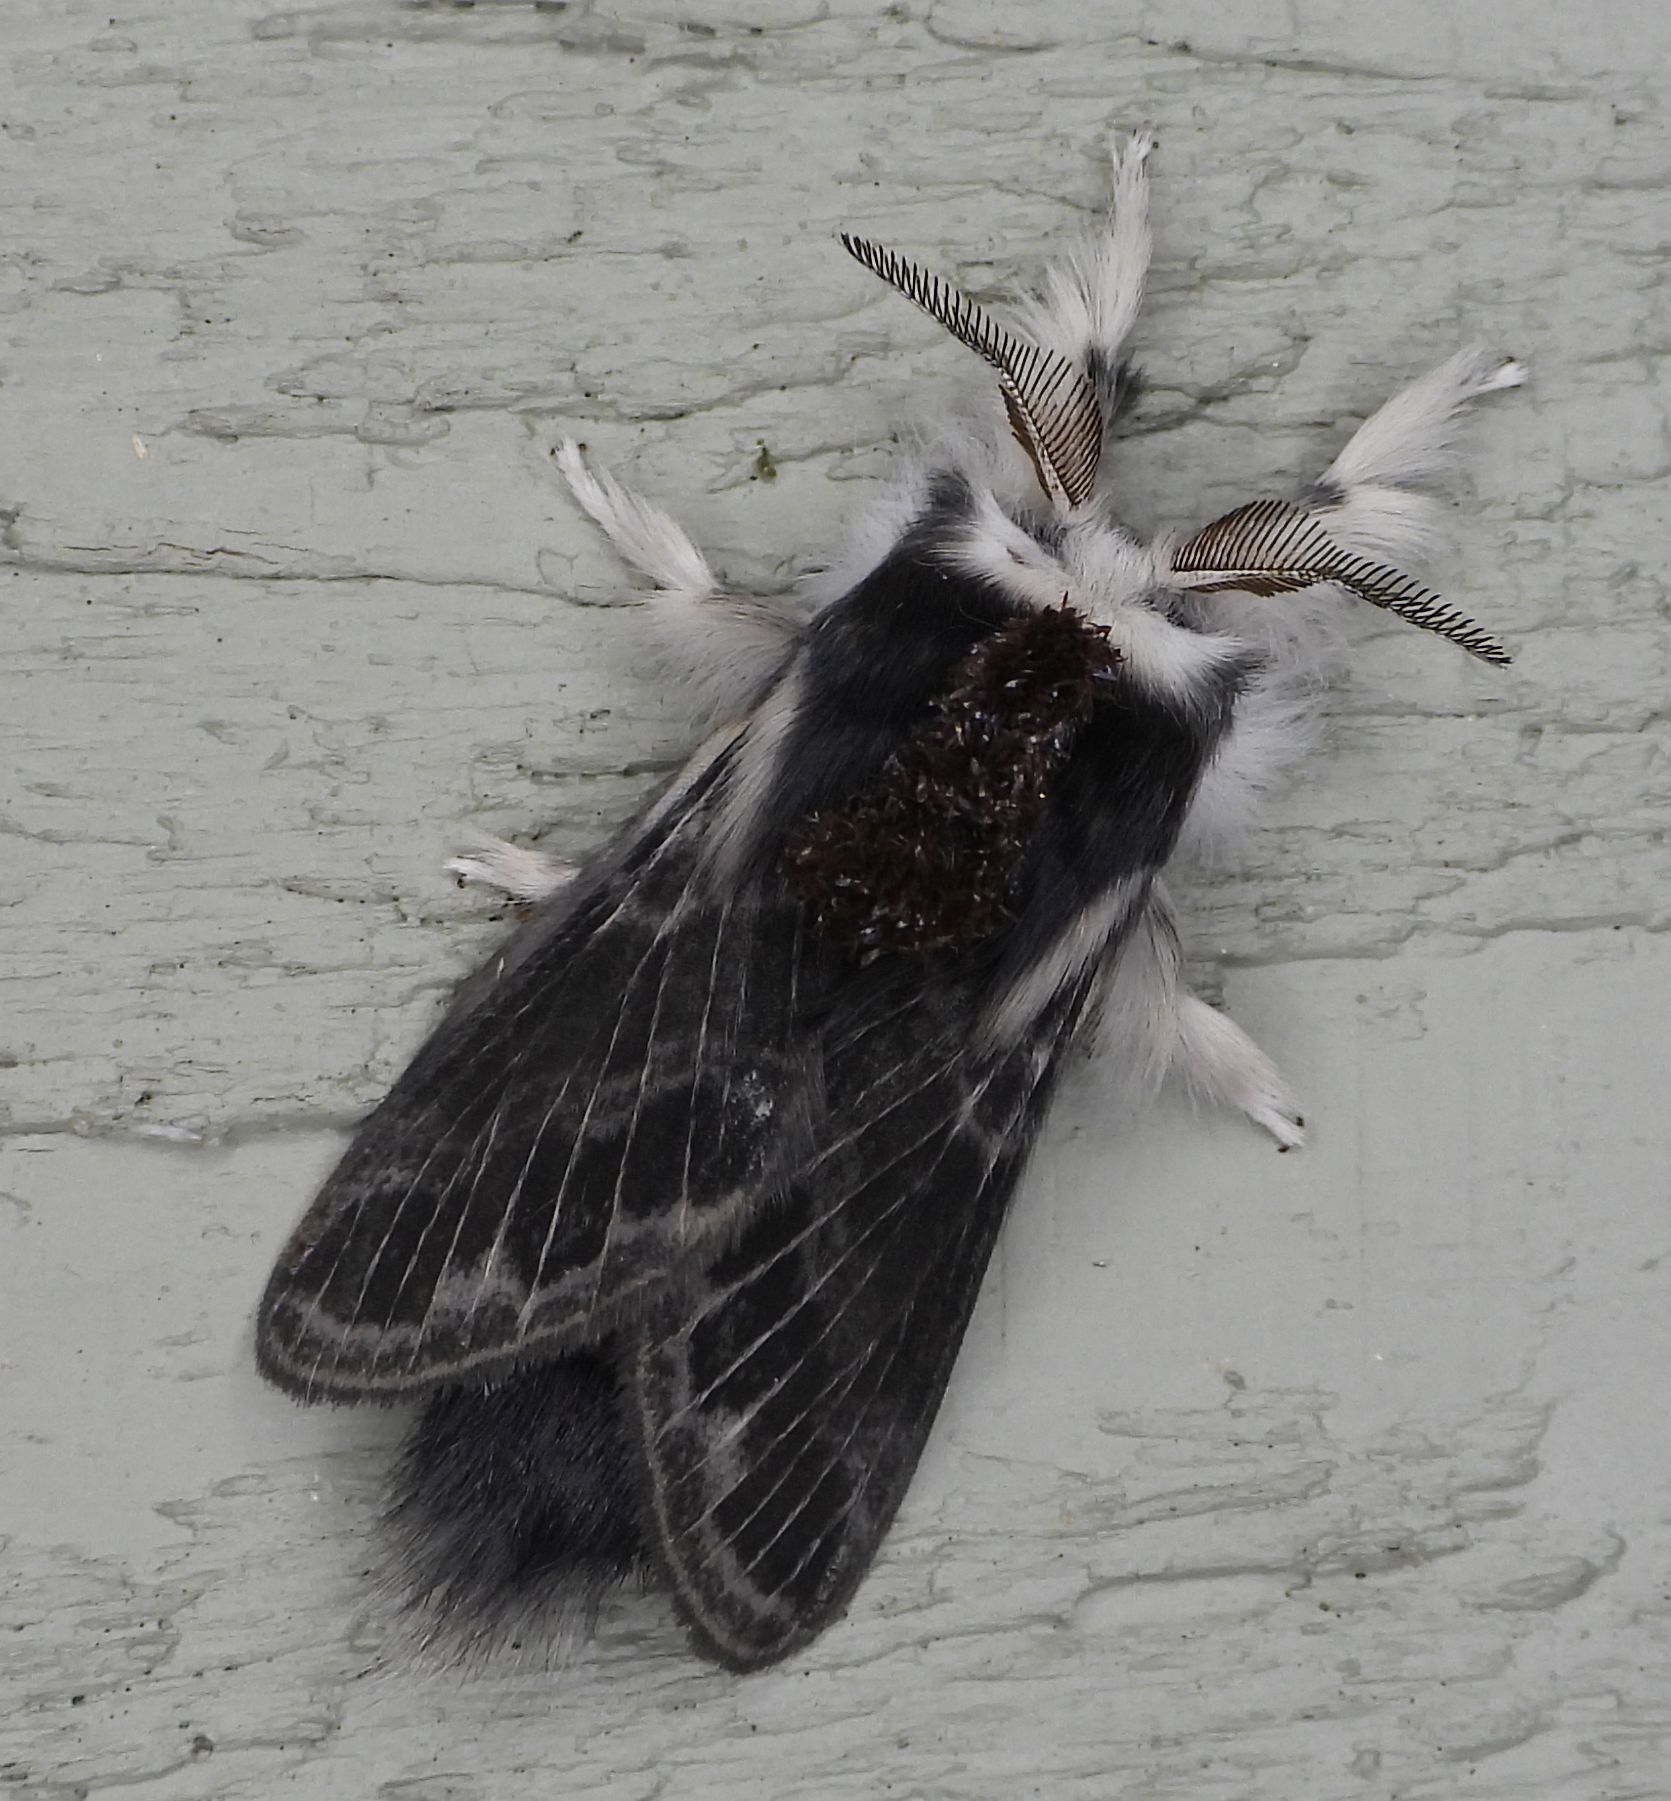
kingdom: Animalia
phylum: Arthropoda
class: Insecta
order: Lepidoptera
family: Lasiocampidae
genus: Tolype
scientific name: Tolype laricis
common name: Larch tolype moth
